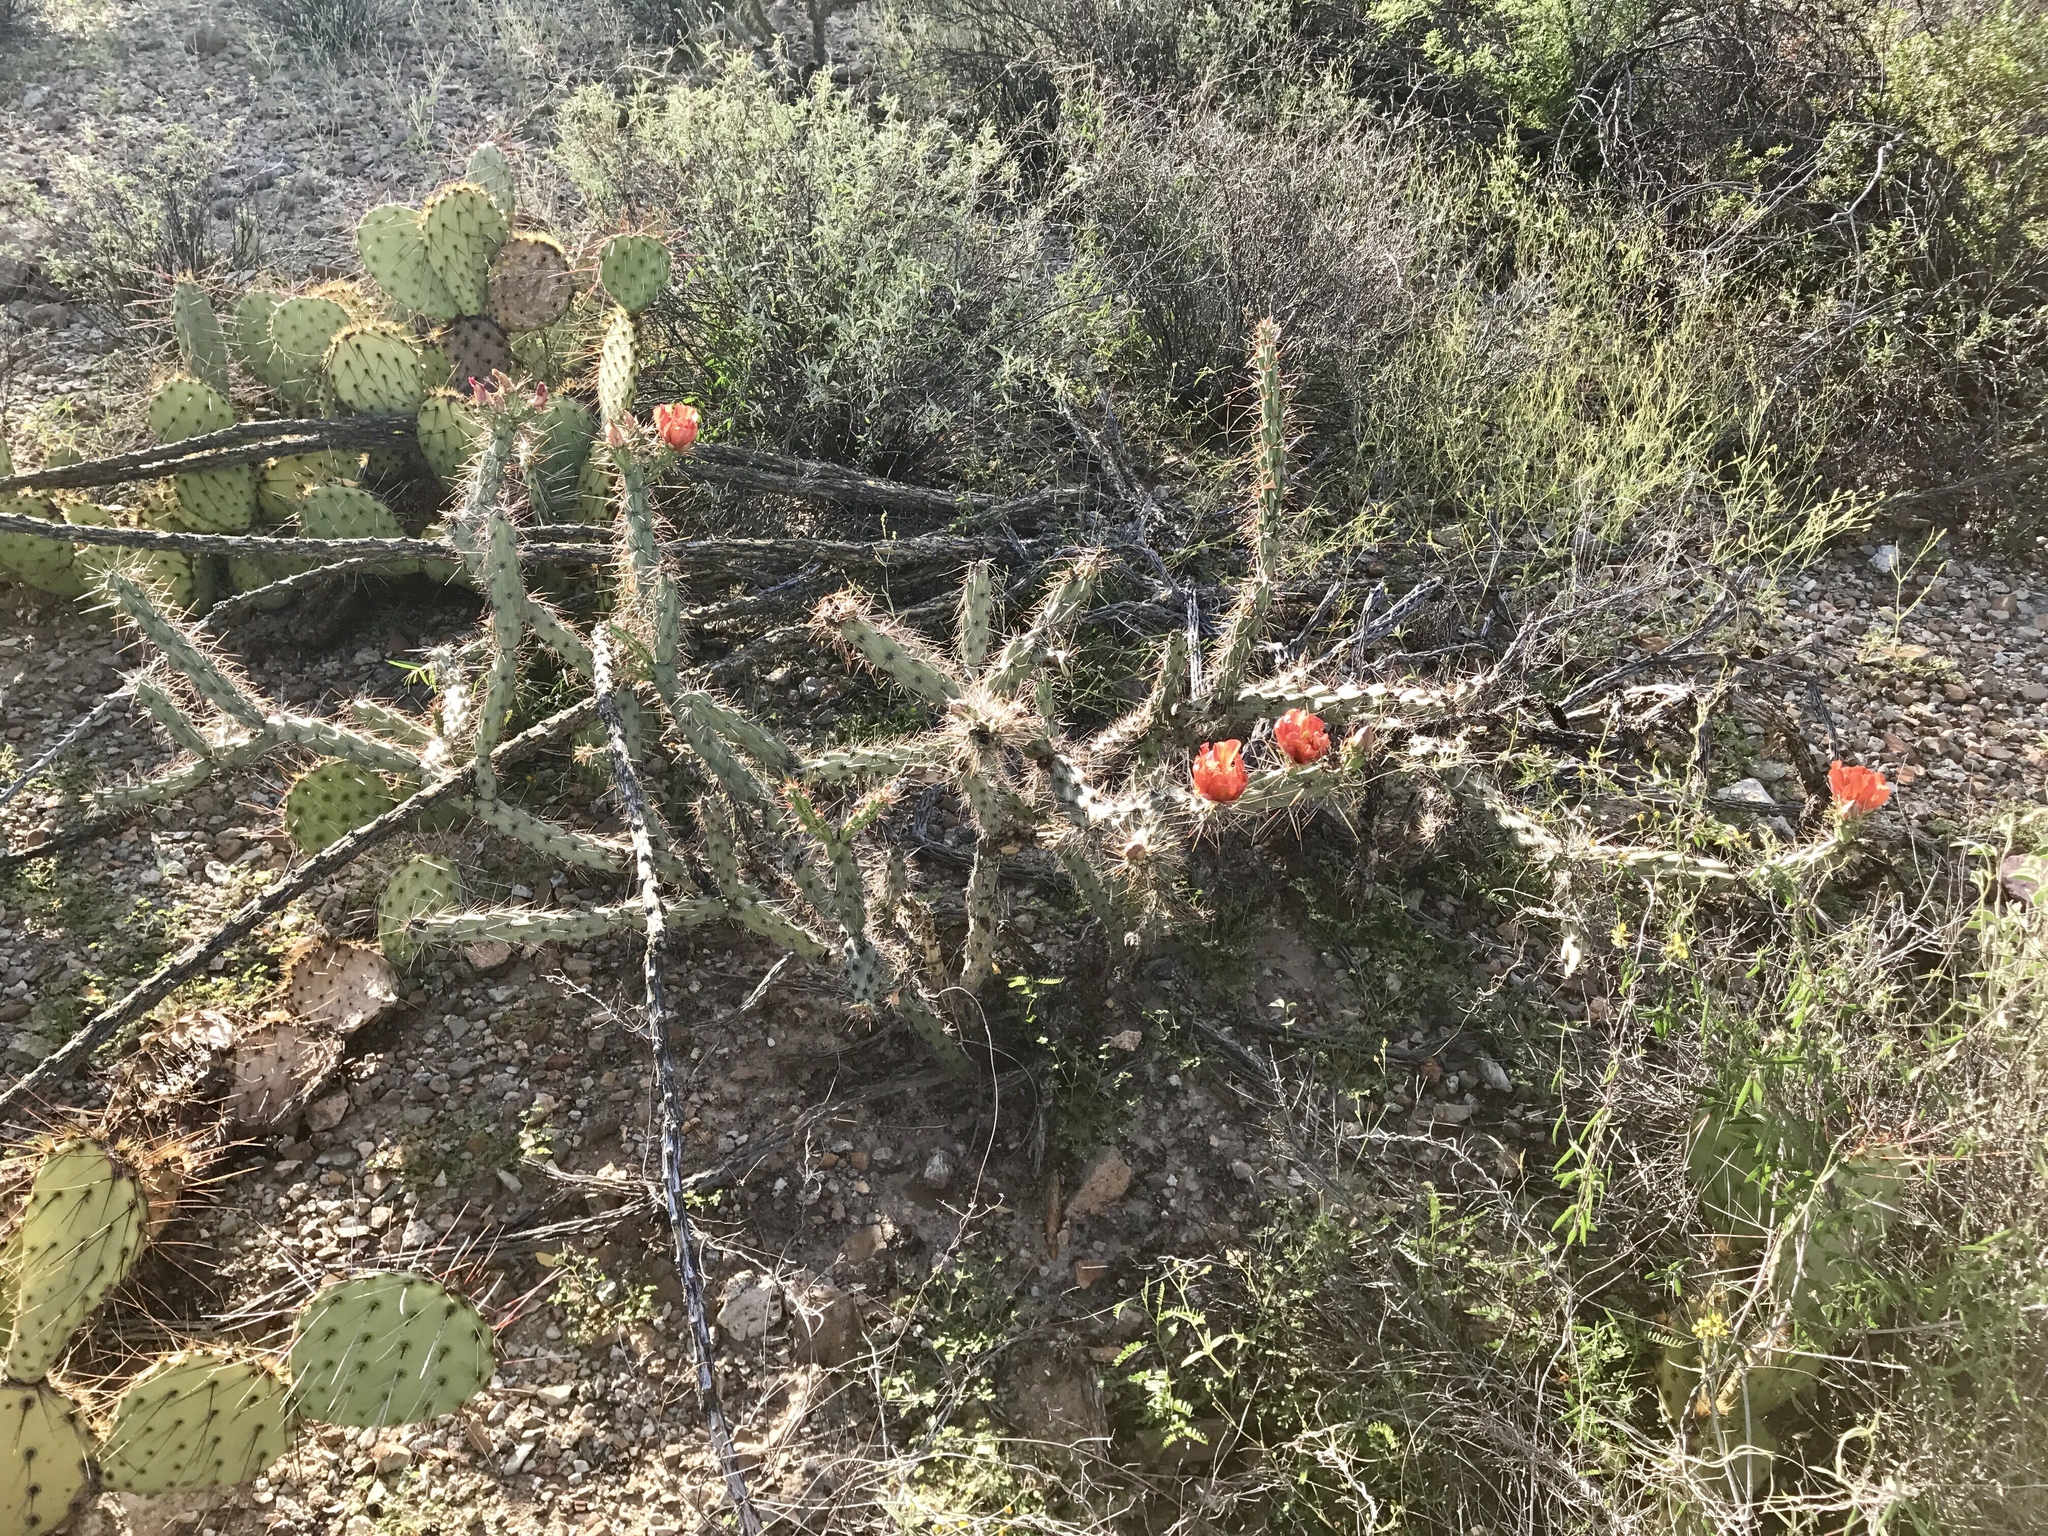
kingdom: Plantae
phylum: Tracheophyta
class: Magnoliopsida
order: Caryophyllales
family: Cactaceae
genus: Cylindropuntia
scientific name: Cylindropuntia acanthocarpa
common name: Buckhorn cholla
